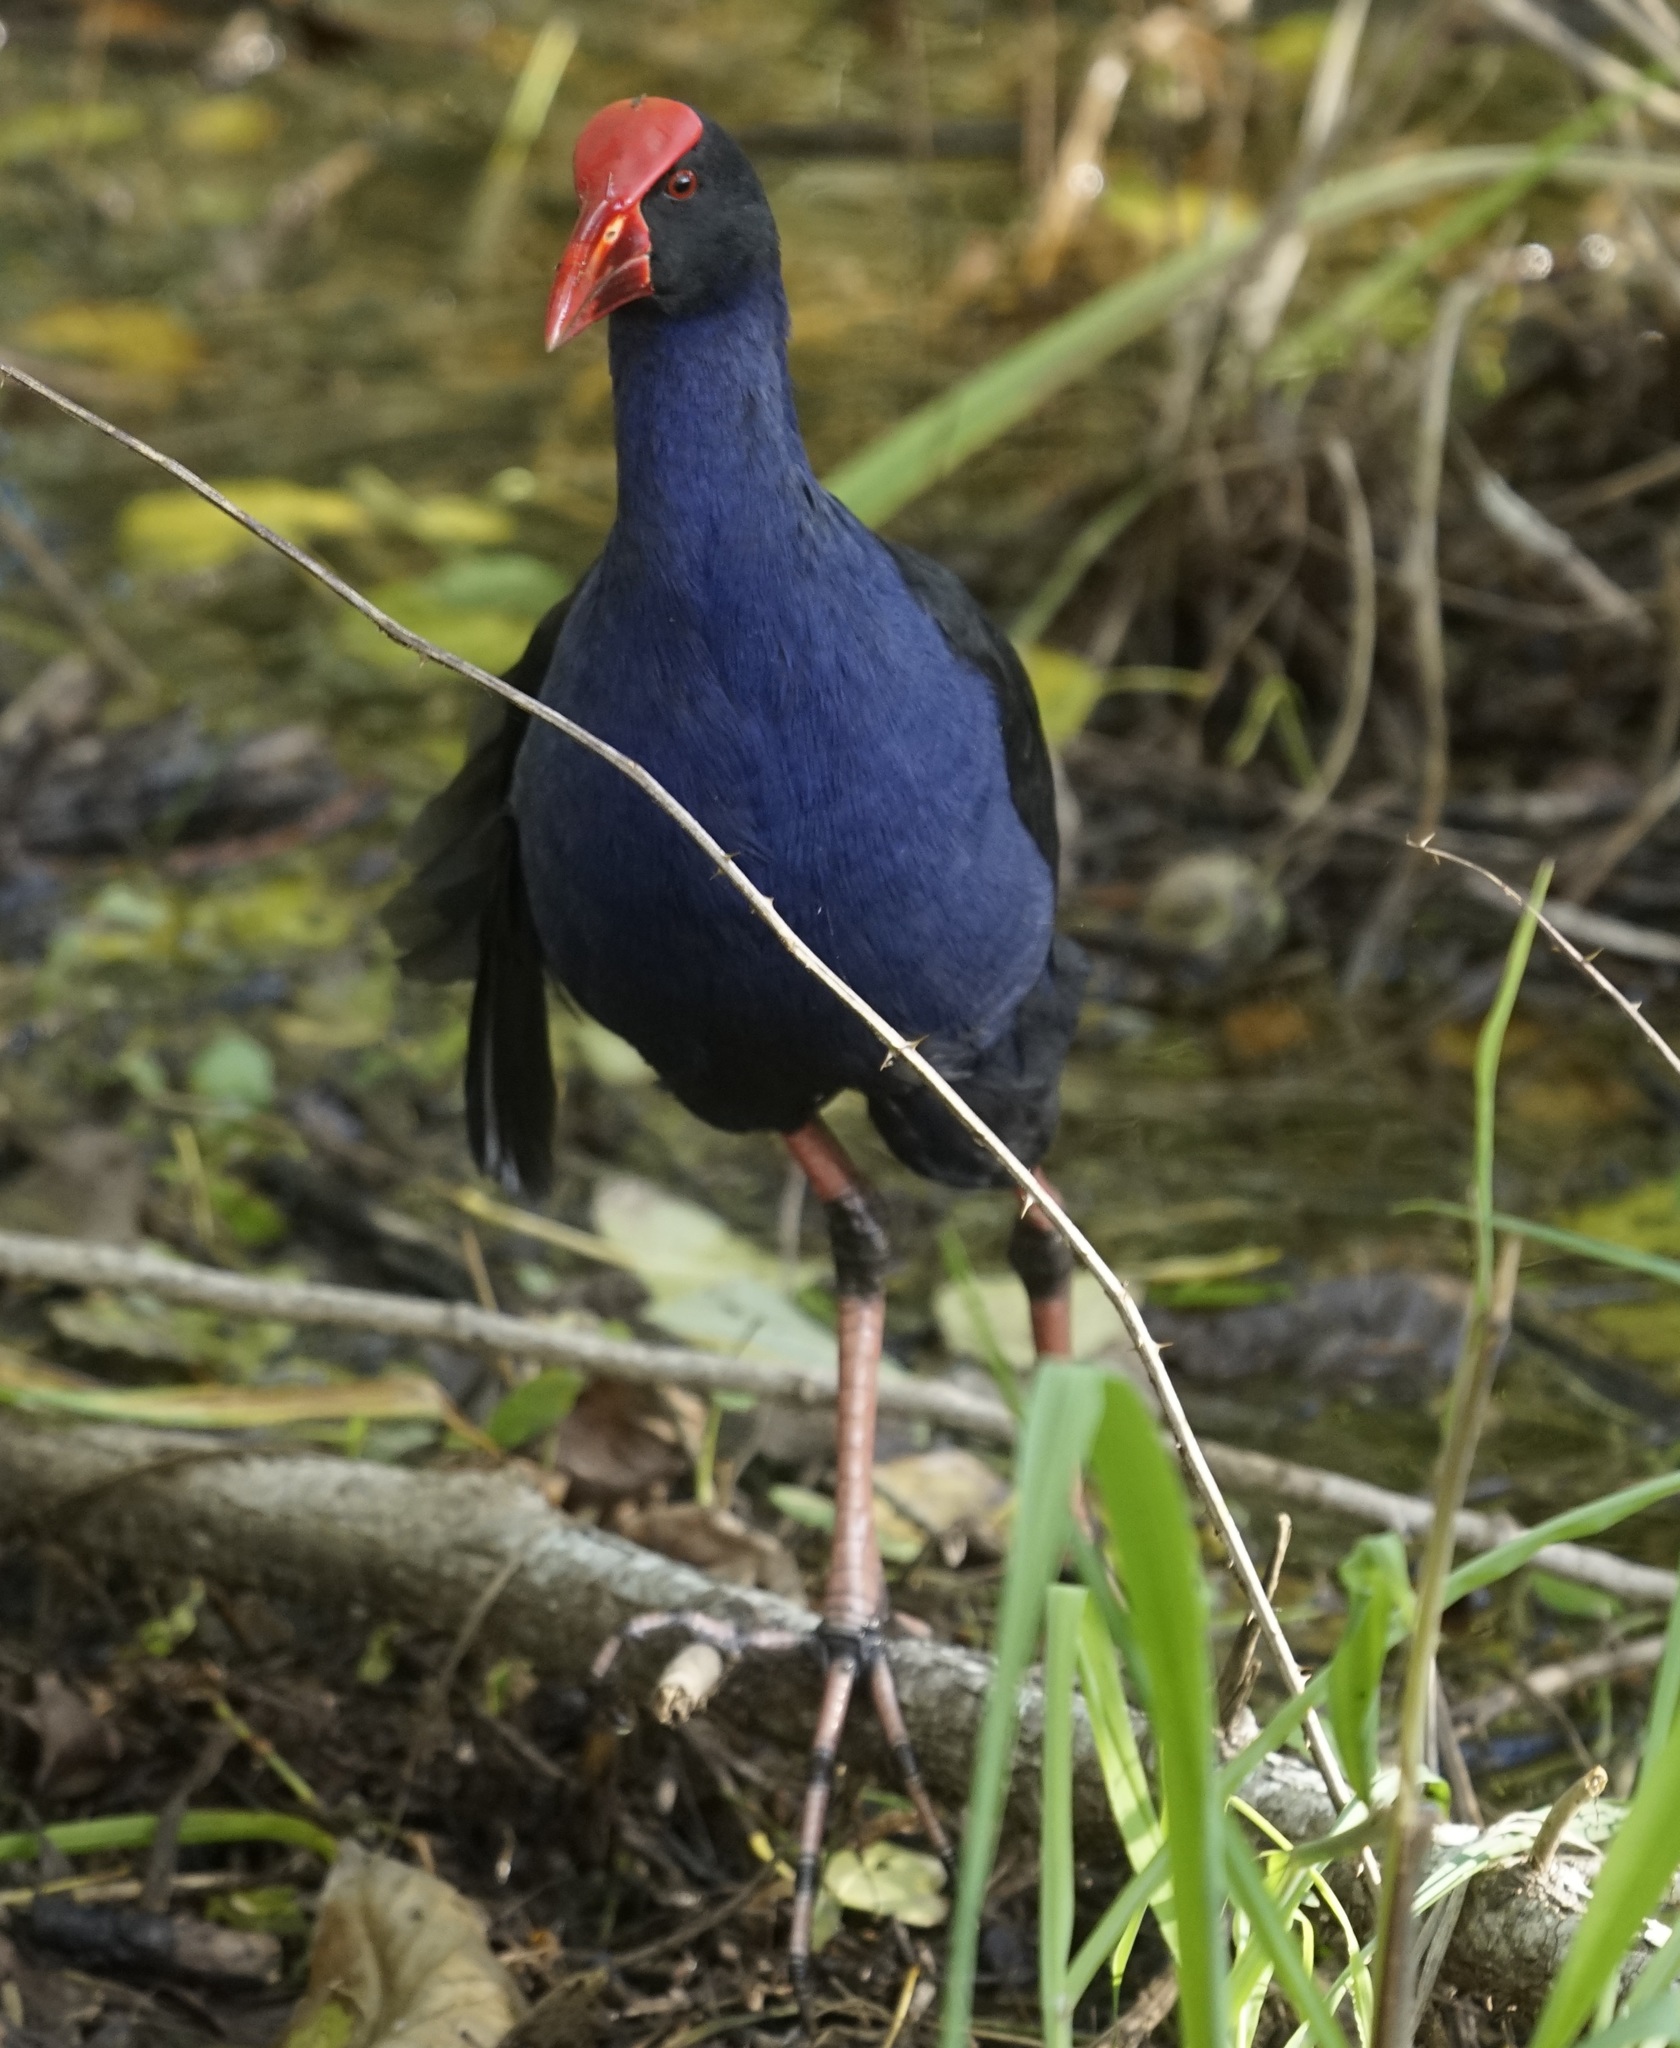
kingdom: Animalia
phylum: Chordata
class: Aves
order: Gruiformes
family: Rallidae
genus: Porphyrio
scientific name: Porphyrio melanotus
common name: Australasian swamphen
